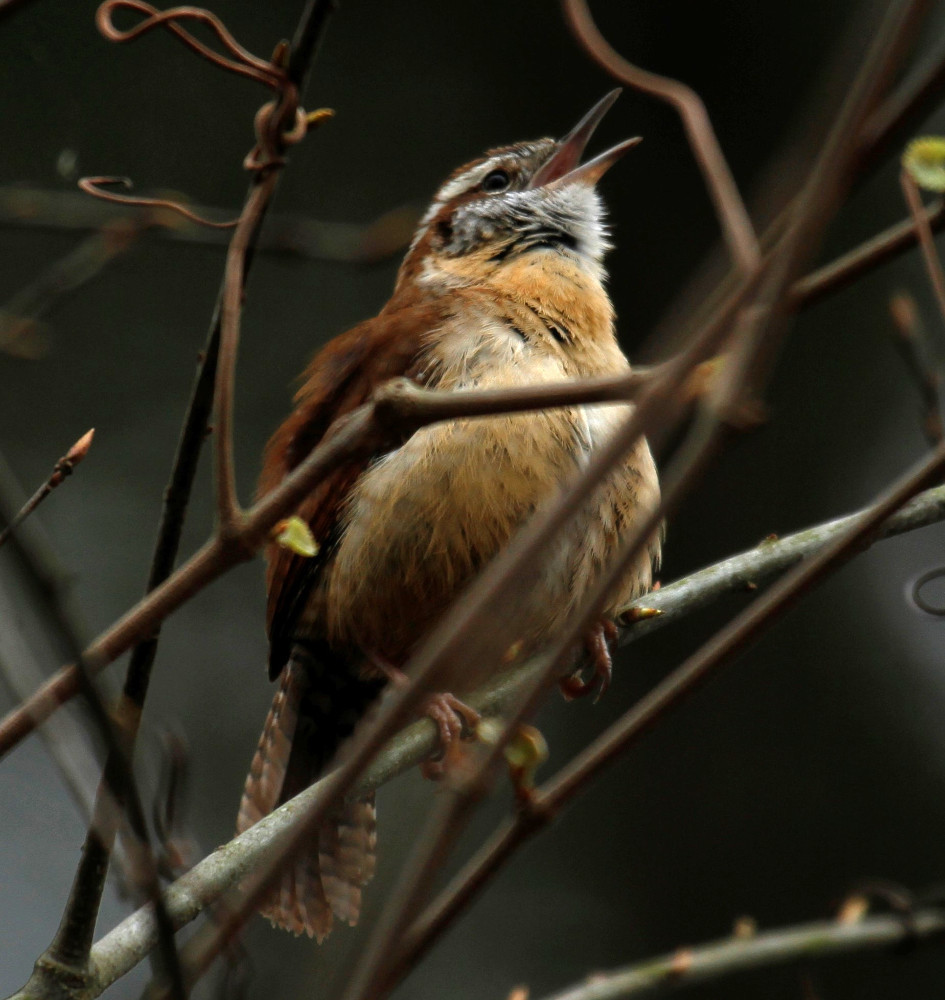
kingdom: Animalia
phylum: Chordata
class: Aves
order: Passeriformes
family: Troglodytidae
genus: Thryothorus
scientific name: Thryothorus ludovicianus
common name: Carolina wren
